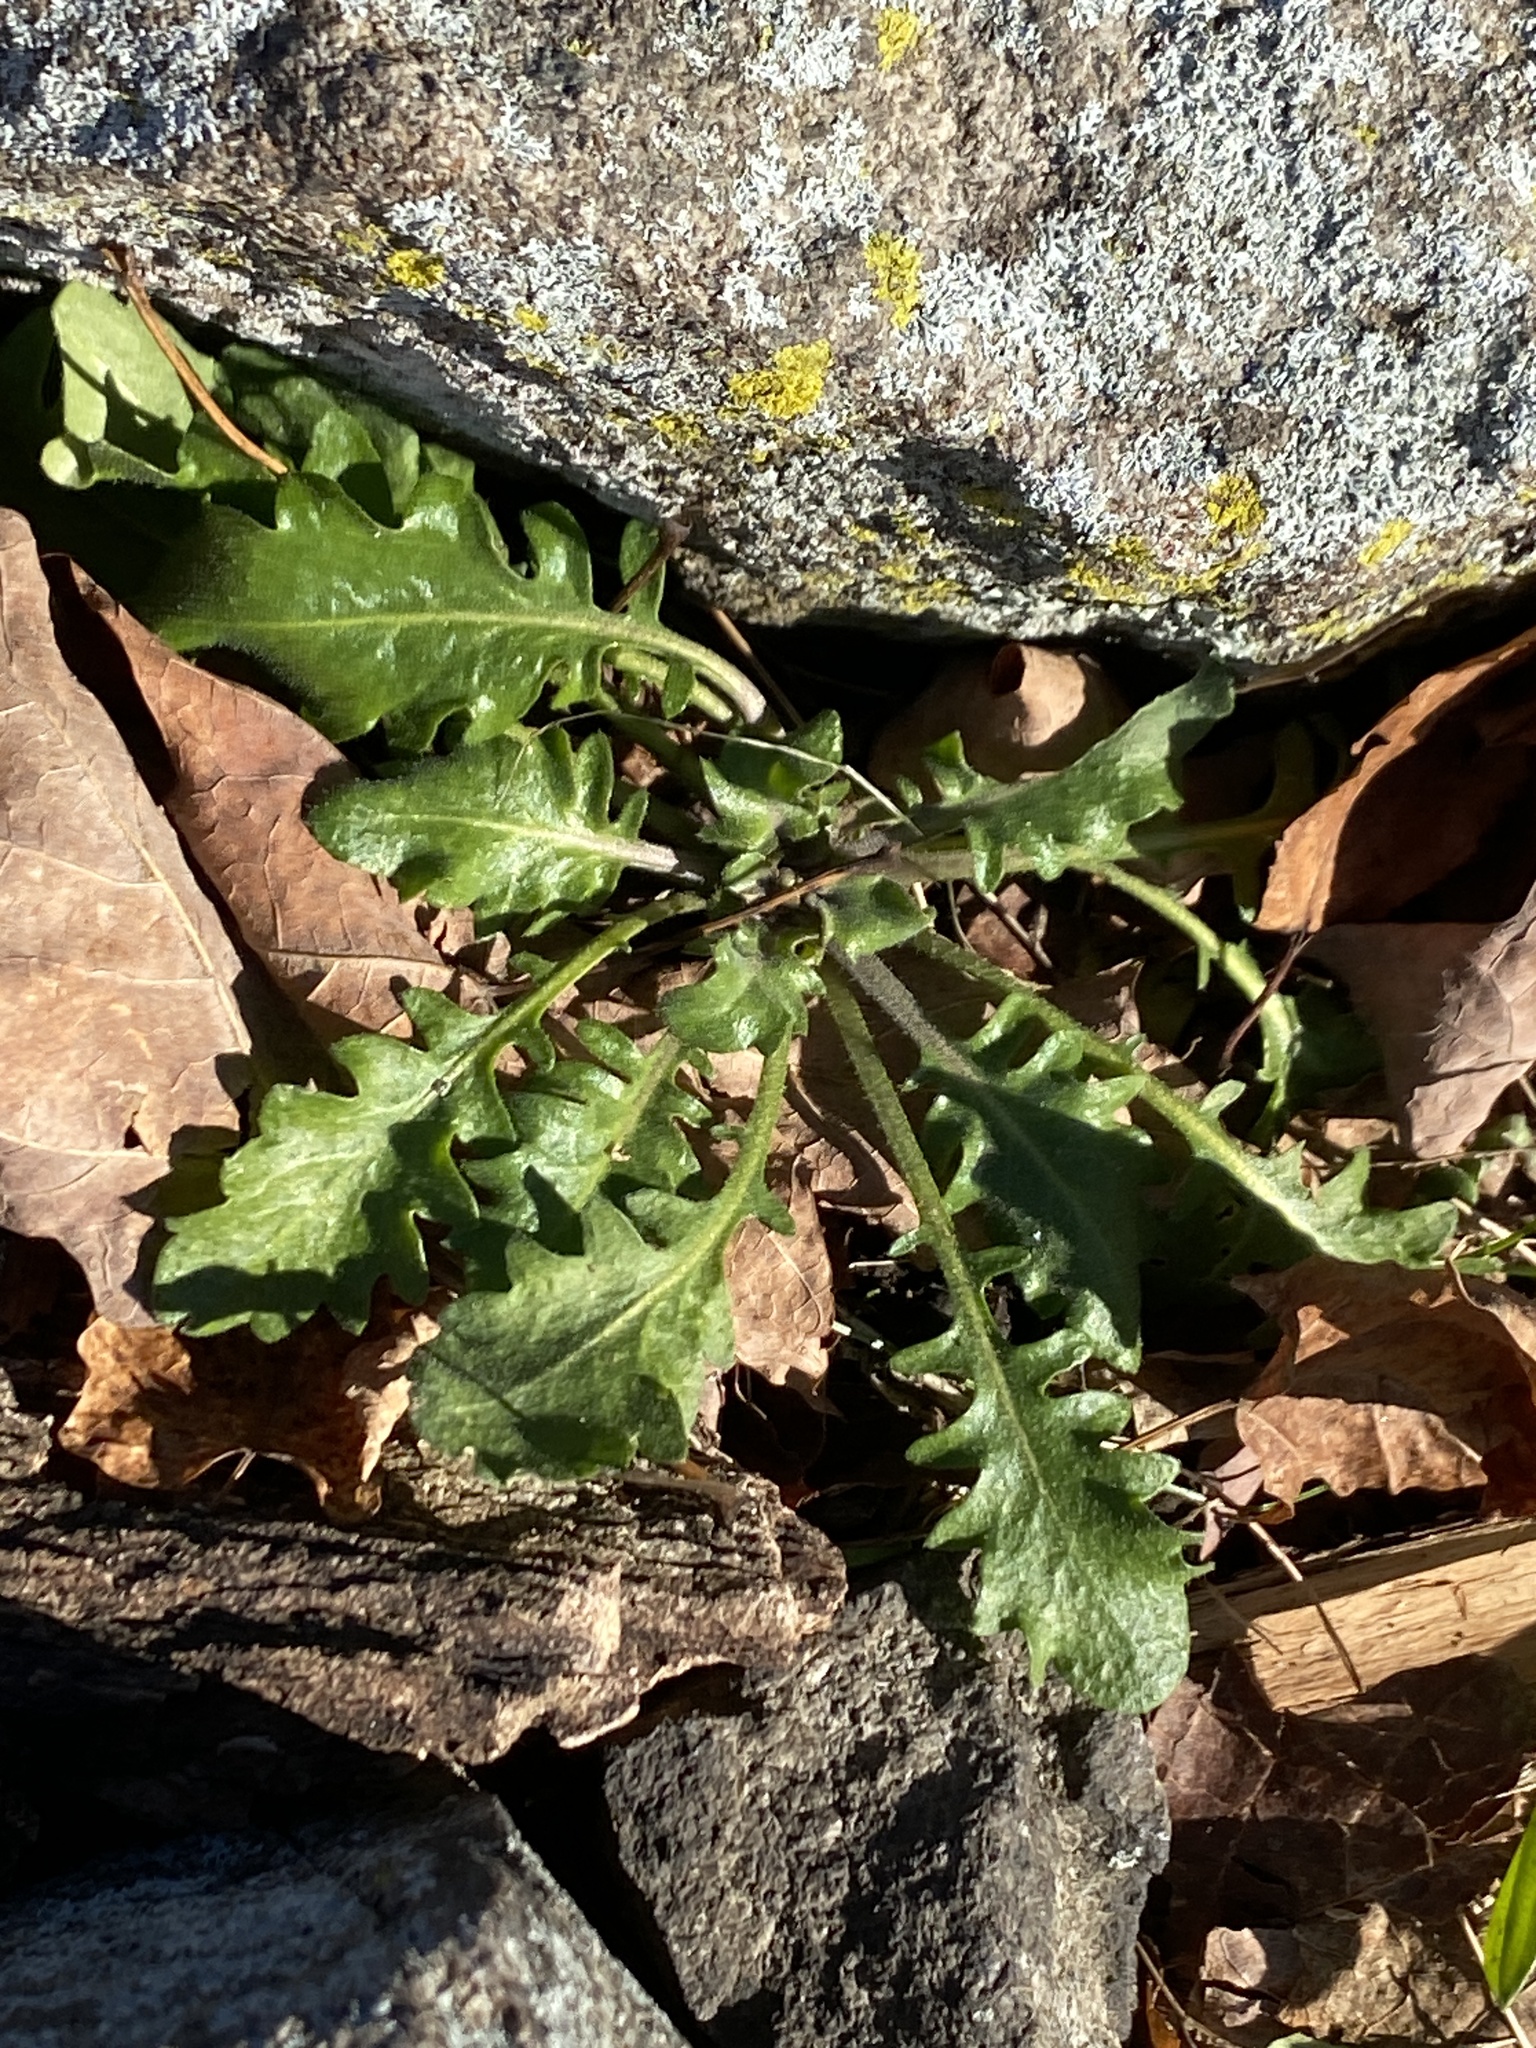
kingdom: Plantae
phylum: Tracheophyta
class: Magnoliopsida
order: Brassicales
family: Brassicaceae
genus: Arabidopsis
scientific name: Arabidopsis lyrata
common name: Lyrate rockcress
